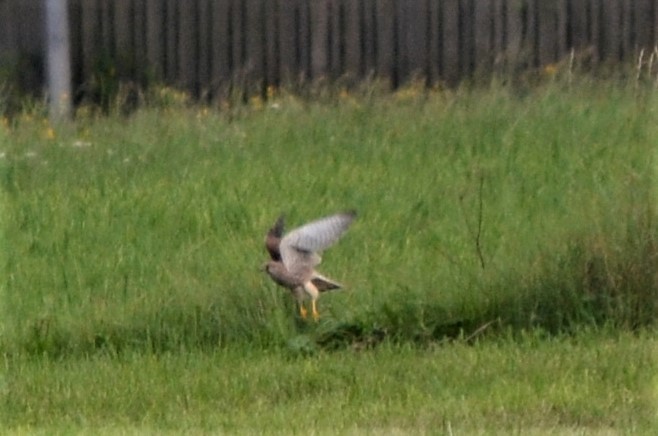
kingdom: Animalia
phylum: Chordata
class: Aves
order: Falconiformes
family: Falconidae
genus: Falco
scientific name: Falco tinnunculus
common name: Common kestrel
